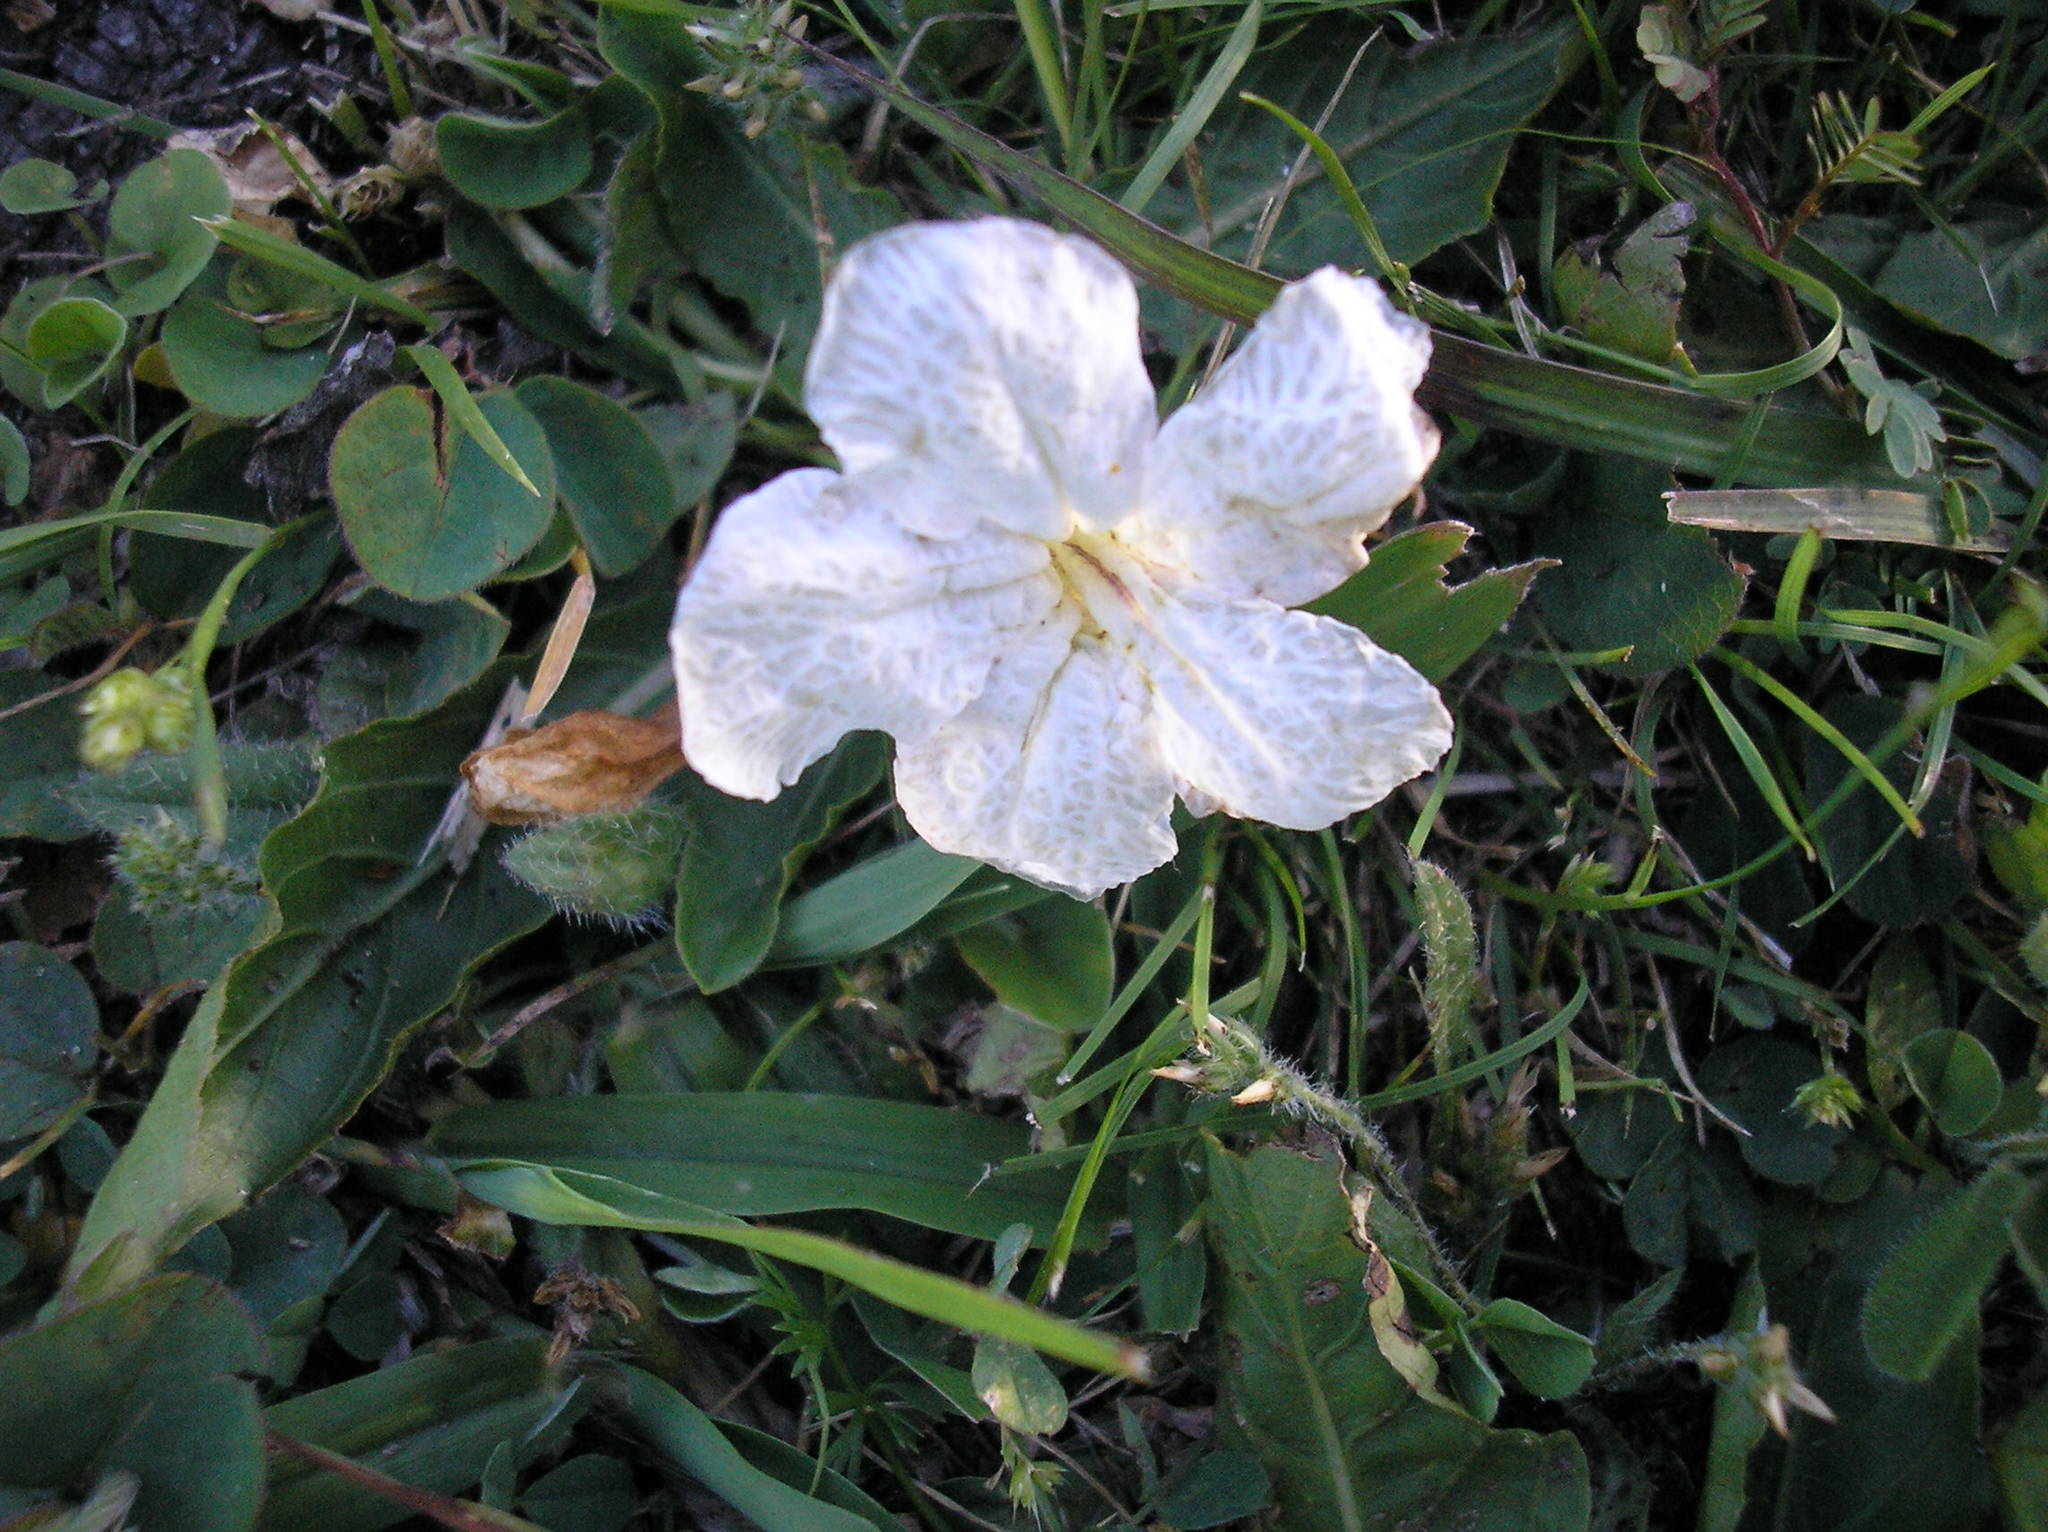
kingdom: Plantae
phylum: Tracheophyta
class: Magnoliopsida
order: Lamiales
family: Acanthaceae
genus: Ruellia
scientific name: Ruellia morongii
